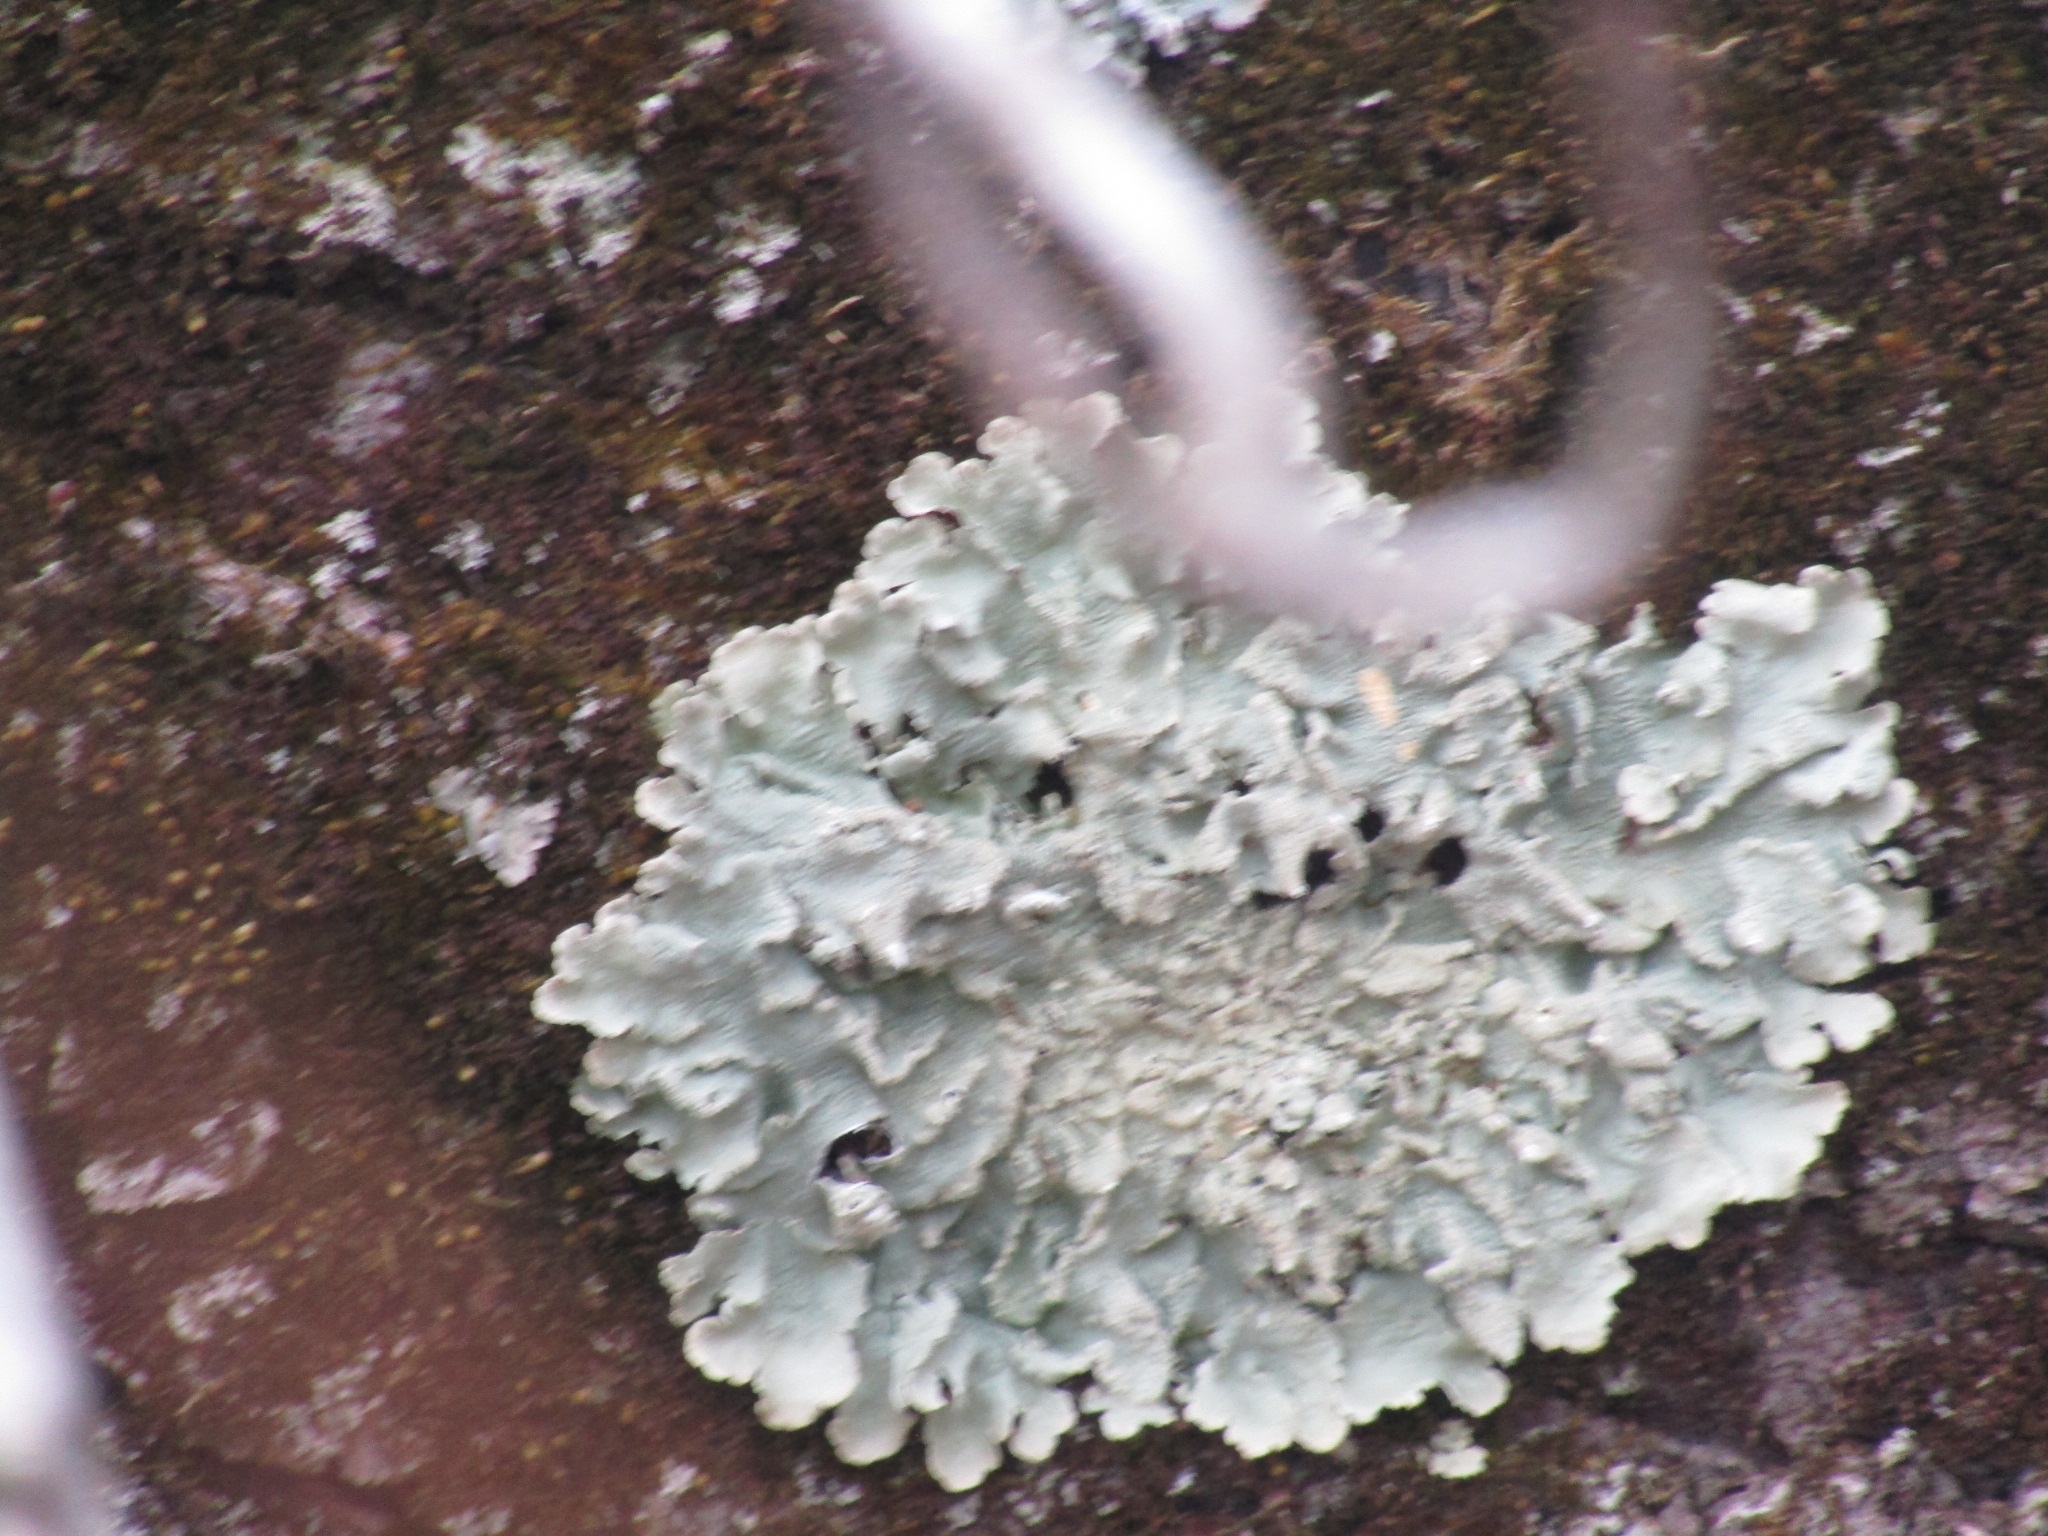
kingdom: Fungi
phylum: Ascomycota
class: Lecanoromycetes
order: Lecanorales
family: Parmeliaceae
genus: Flavoparmelia
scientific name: Flavoparmelia caperata
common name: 40-mile per hour lichen
